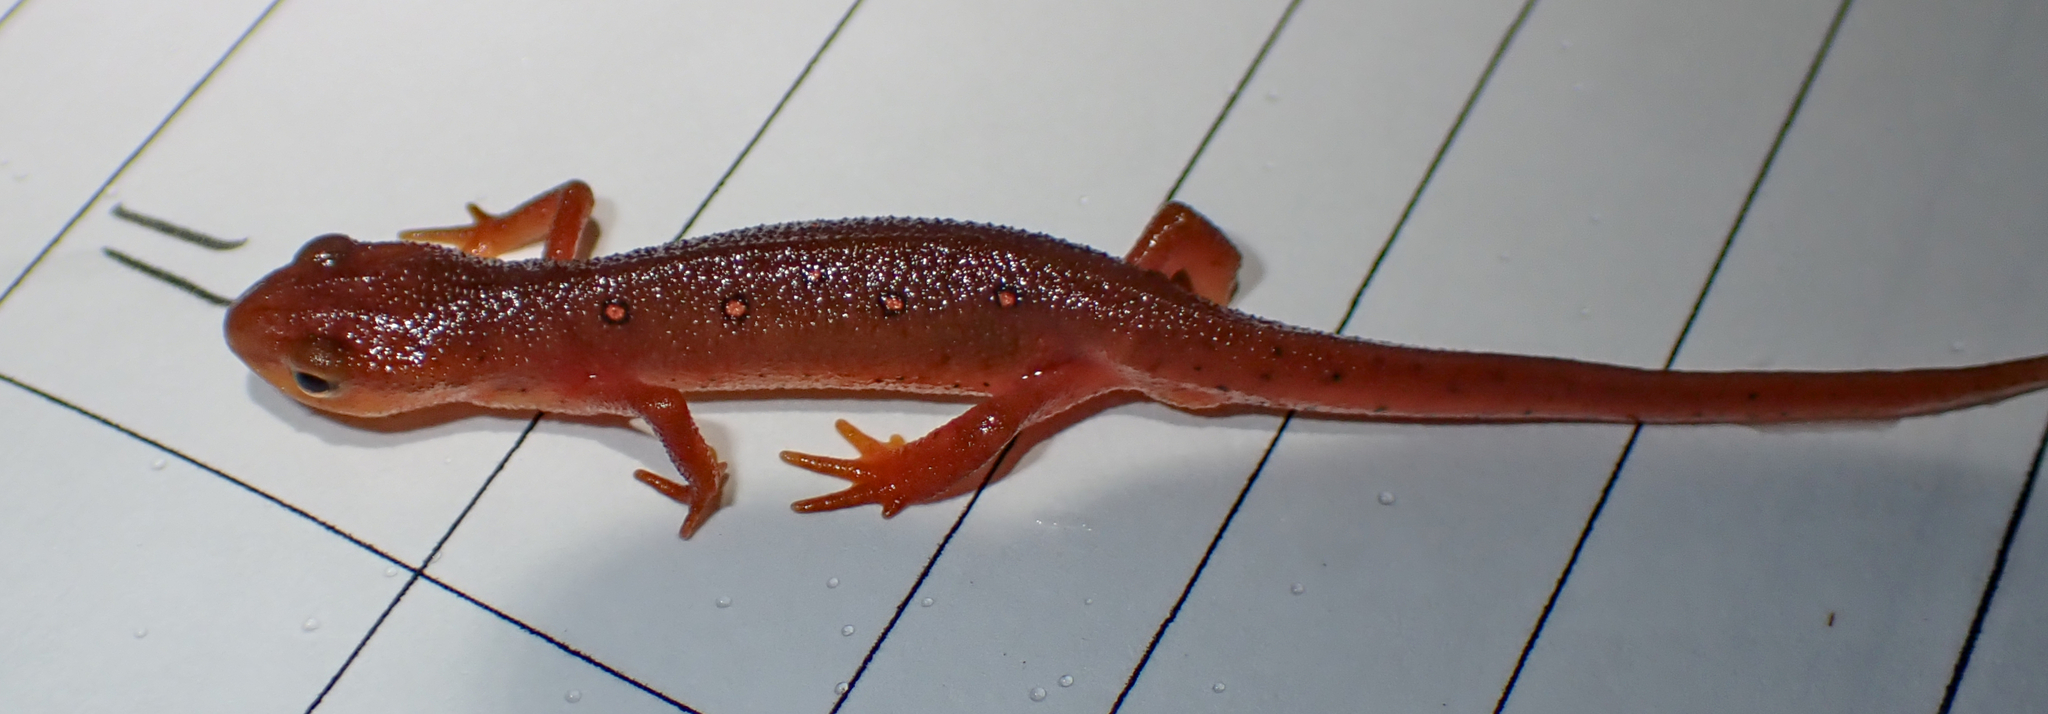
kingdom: Animalia
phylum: Chordata
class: Amphibia
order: Caudata
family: Salamandridae
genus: Notophthalmus
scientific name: Notophthalmus viridescens
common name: Eastern newt
